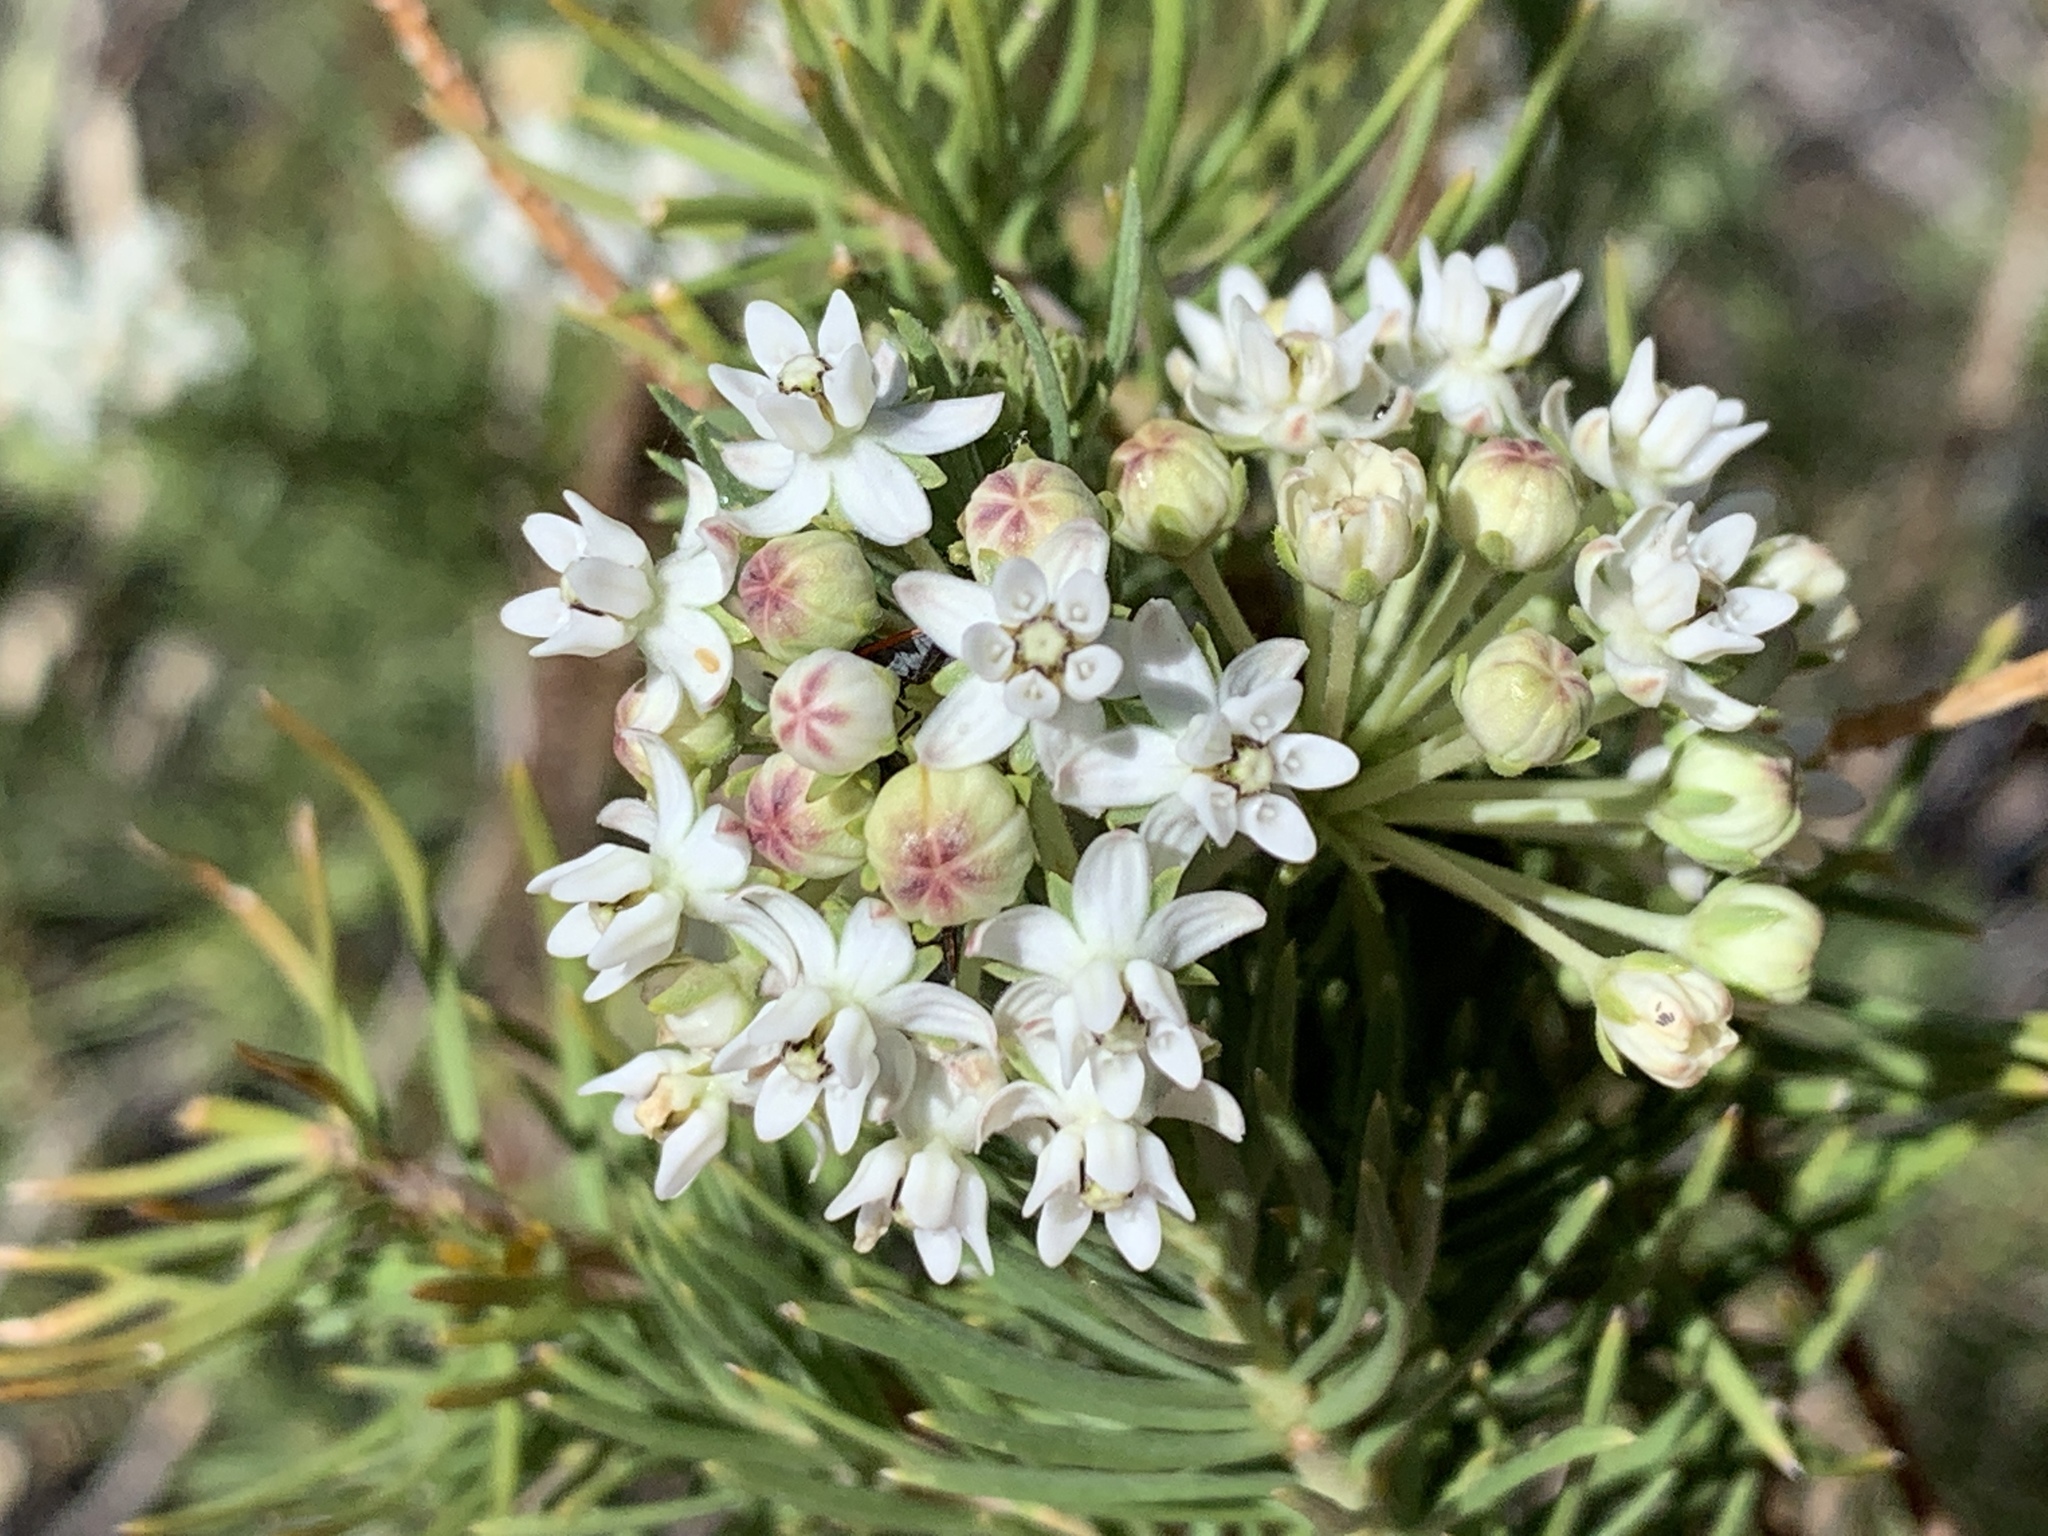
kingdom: Plantae
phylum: Tracheophyta
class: Magnoliopsida
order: Gentianales
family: Apocynaceae
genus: Asclepias
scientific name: Asclepias linaria
